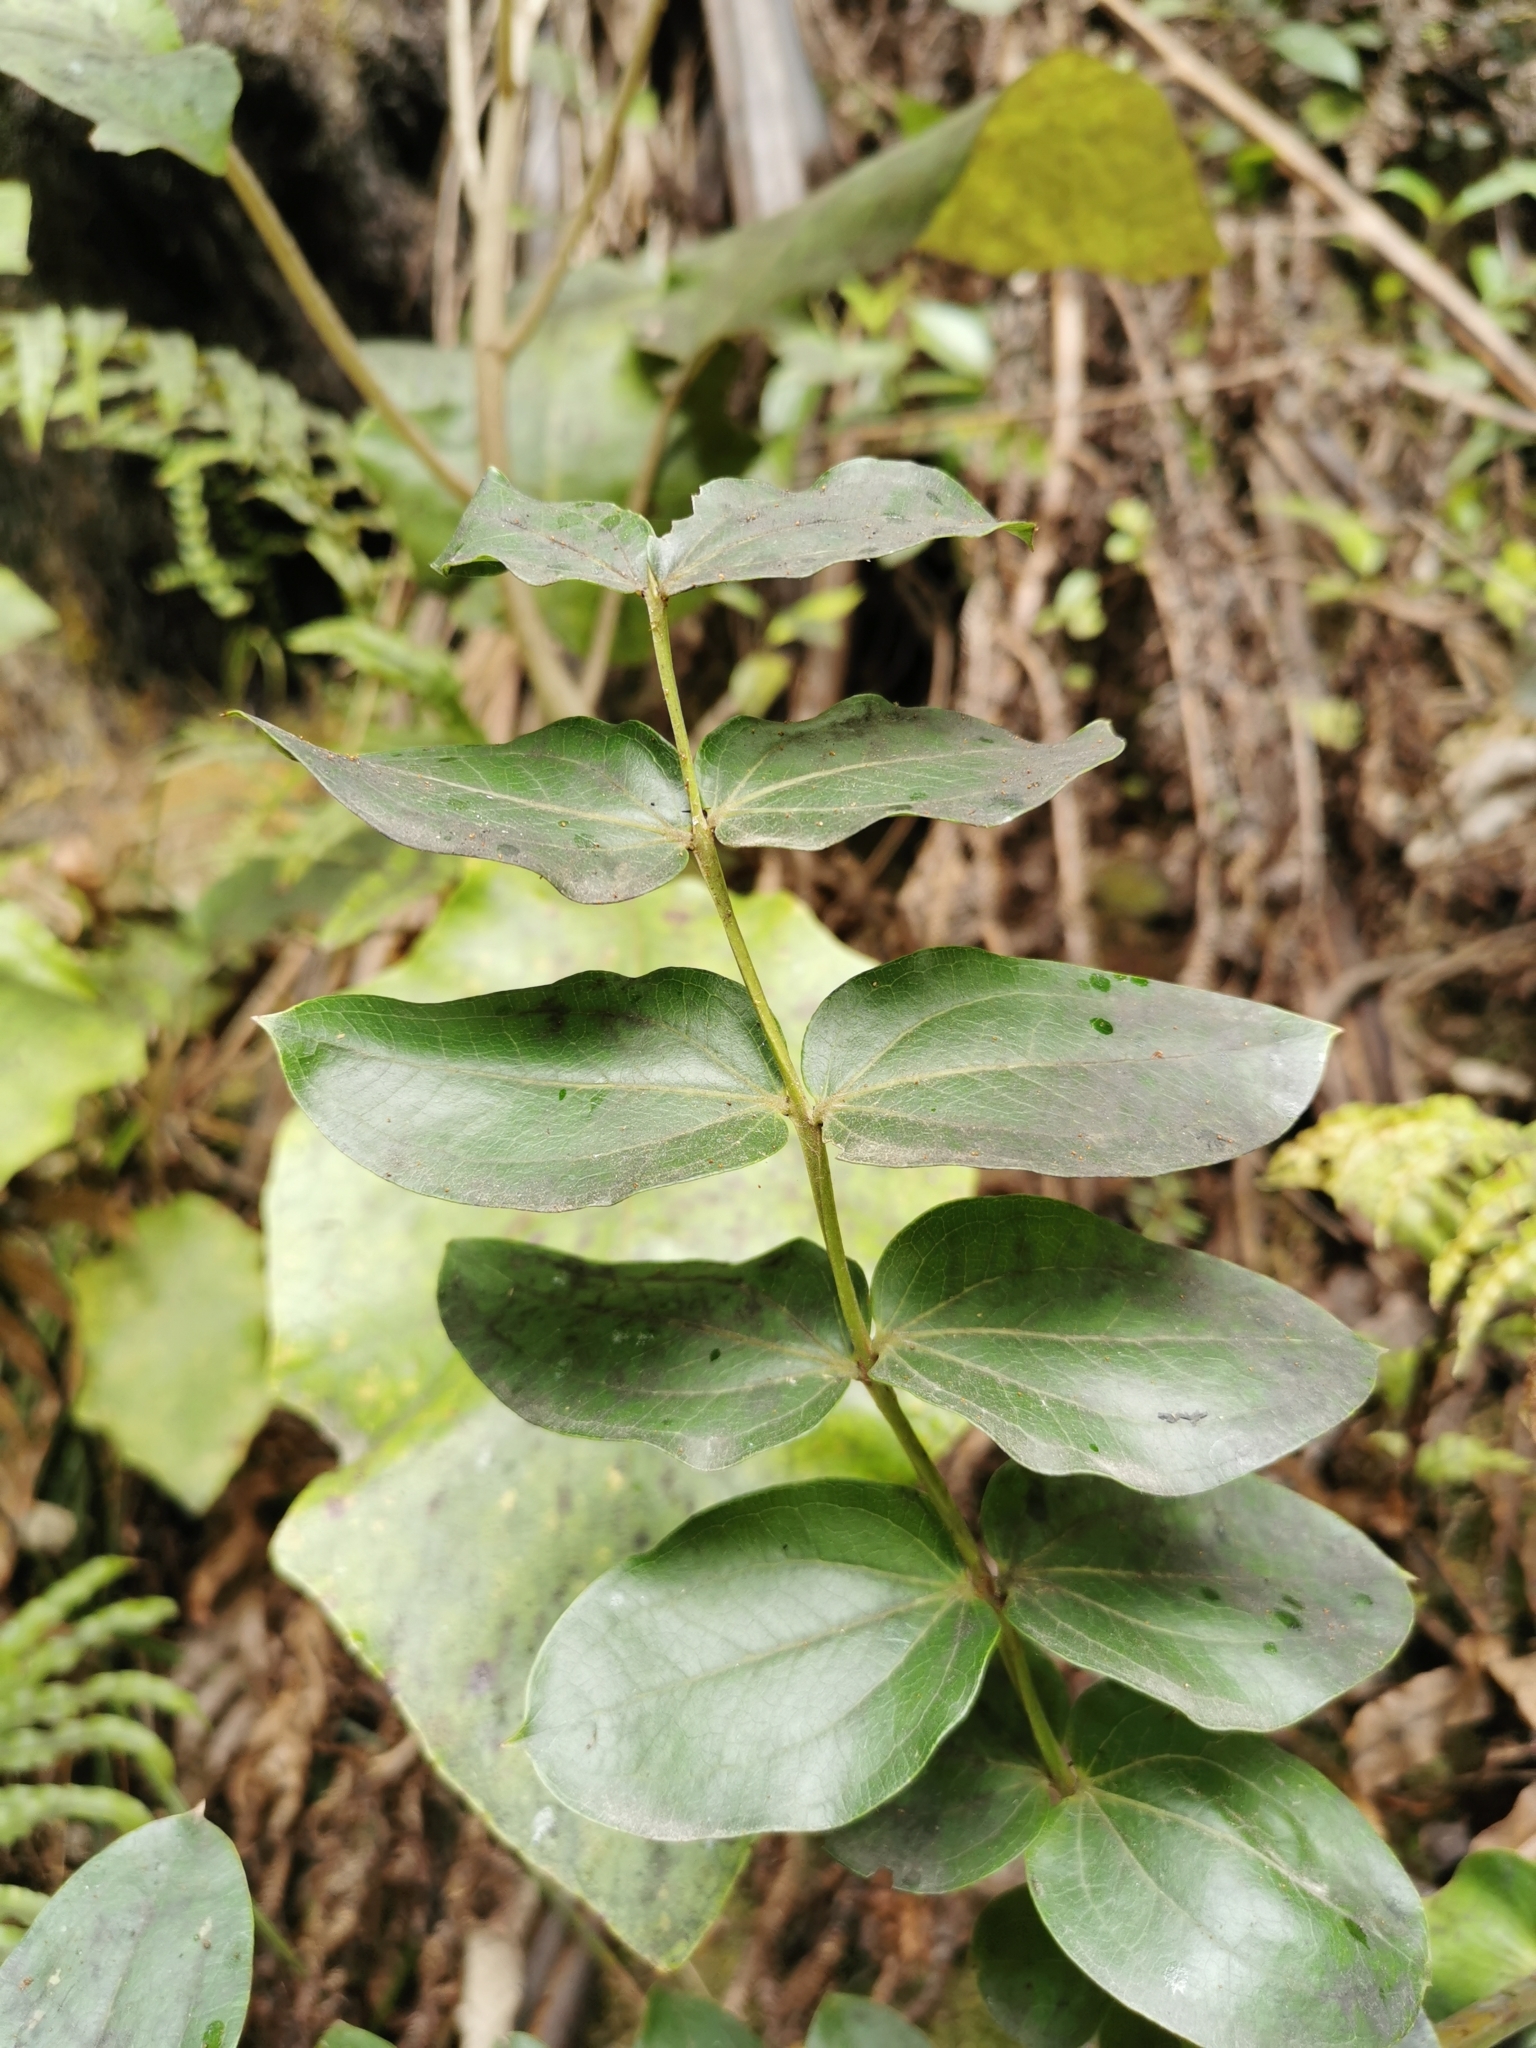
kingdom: Plantae
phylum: Tracheophyta
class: Magnoliopsida
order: Cucurbitales
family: Coriariaceae
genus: Coriaria
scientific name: Coriaria arborea
